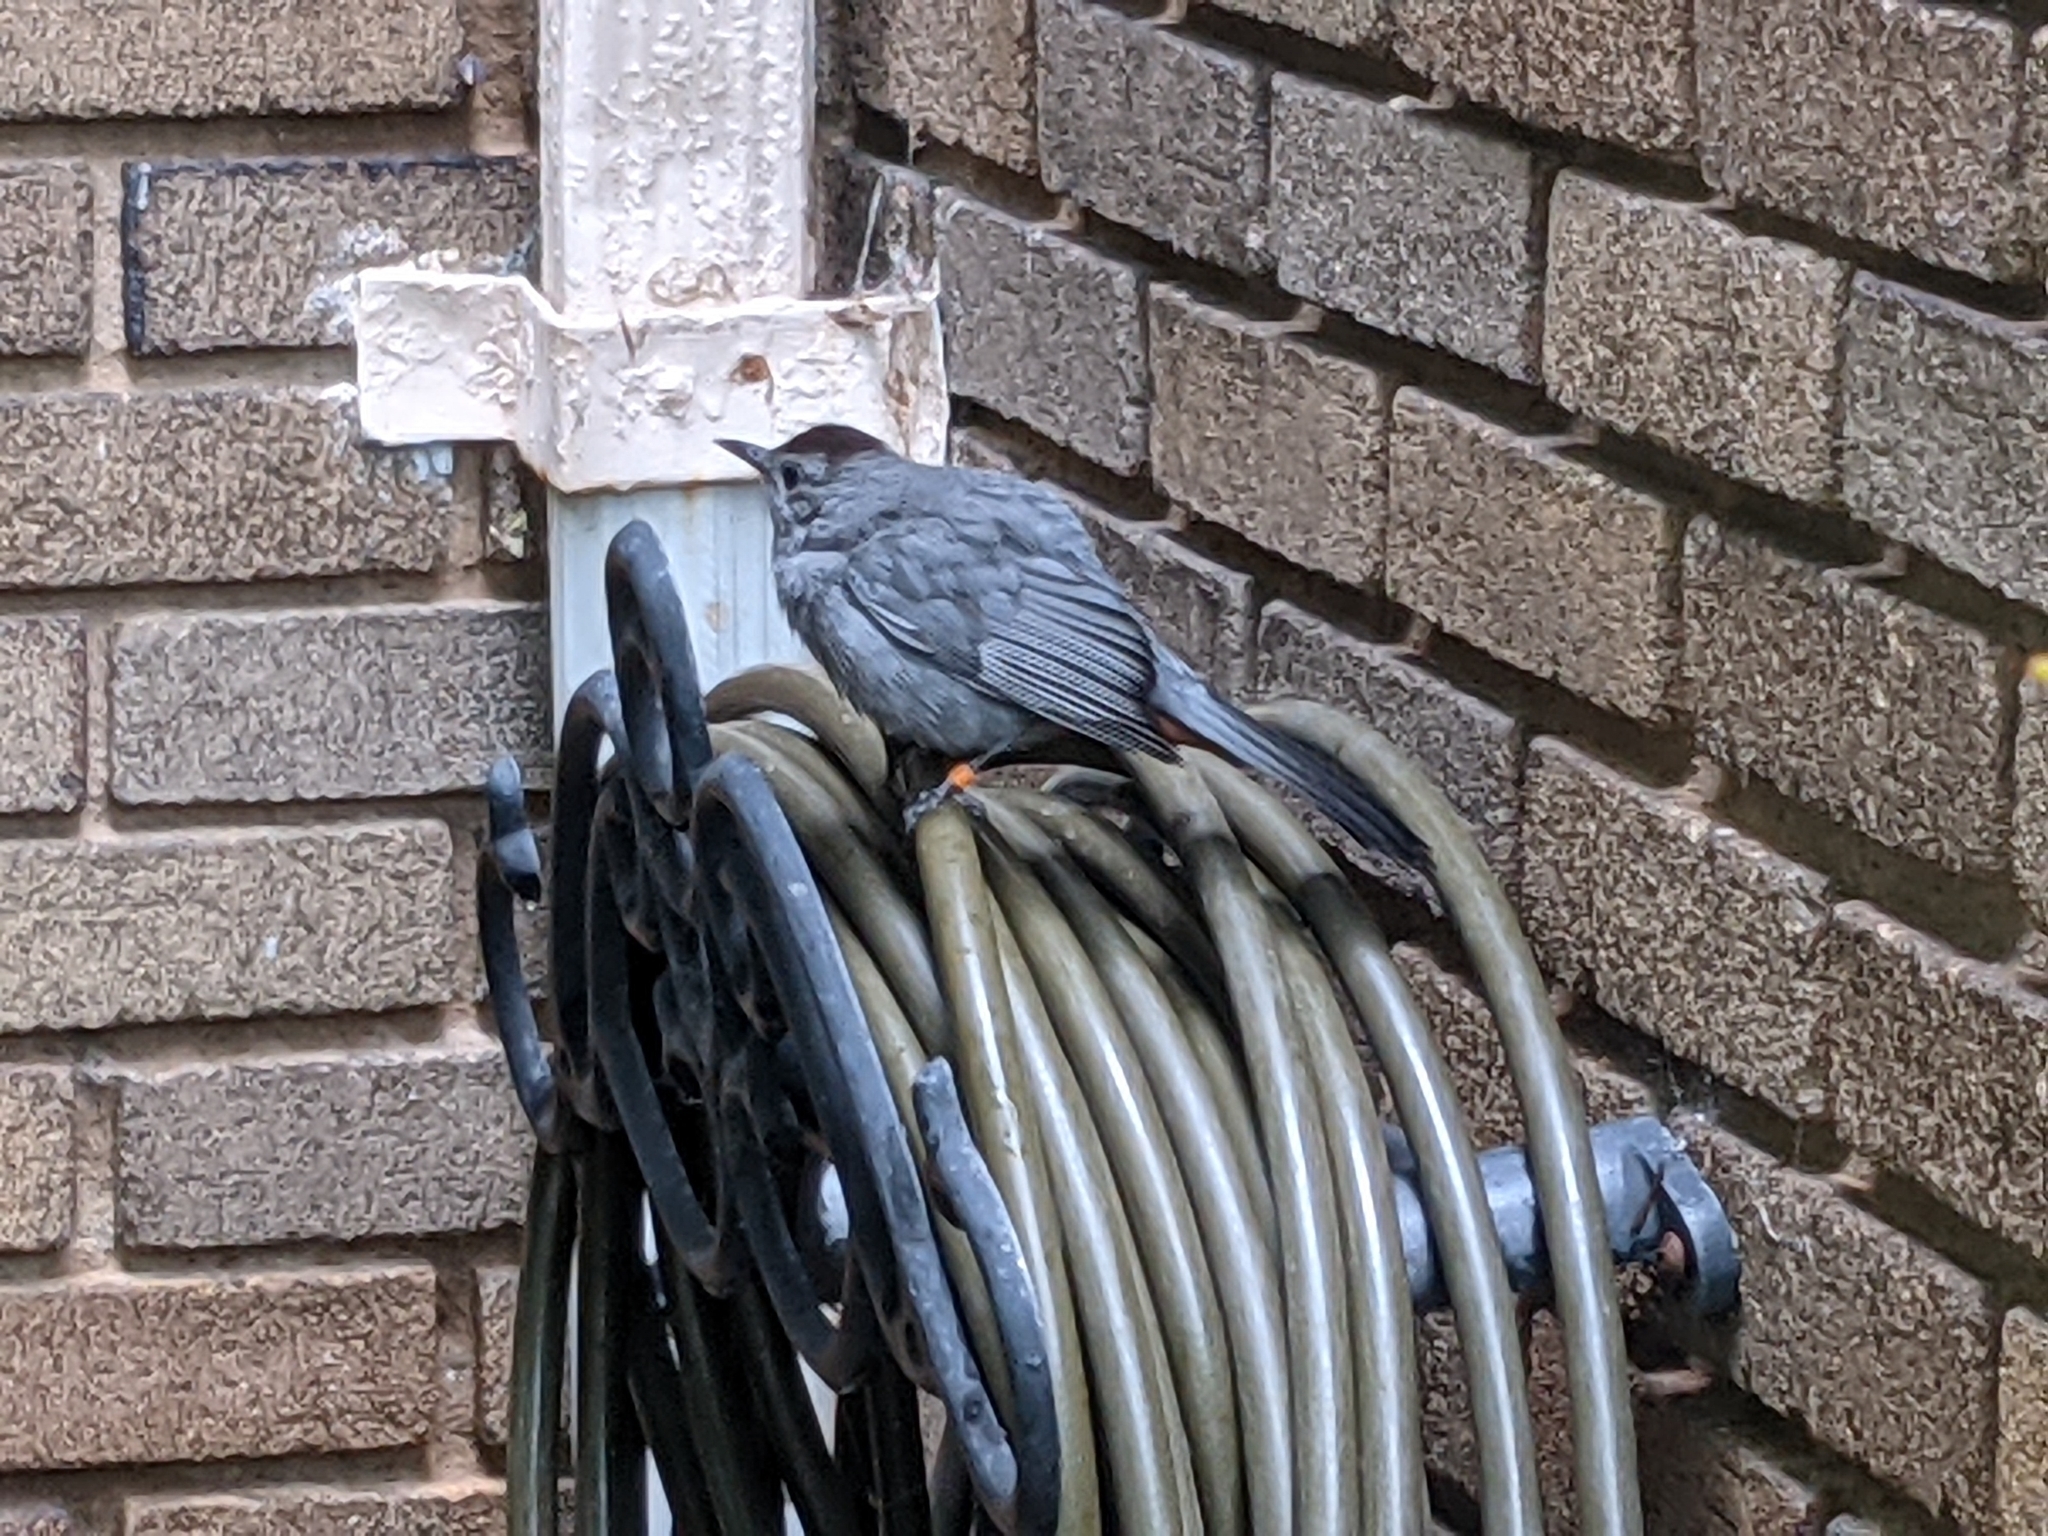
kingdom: Animalia
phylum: Chordata
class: Aves
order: Passeriformes
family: Mimidae
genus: Dumetella
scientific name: Dumetella carolinensis
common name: Gray catbird
